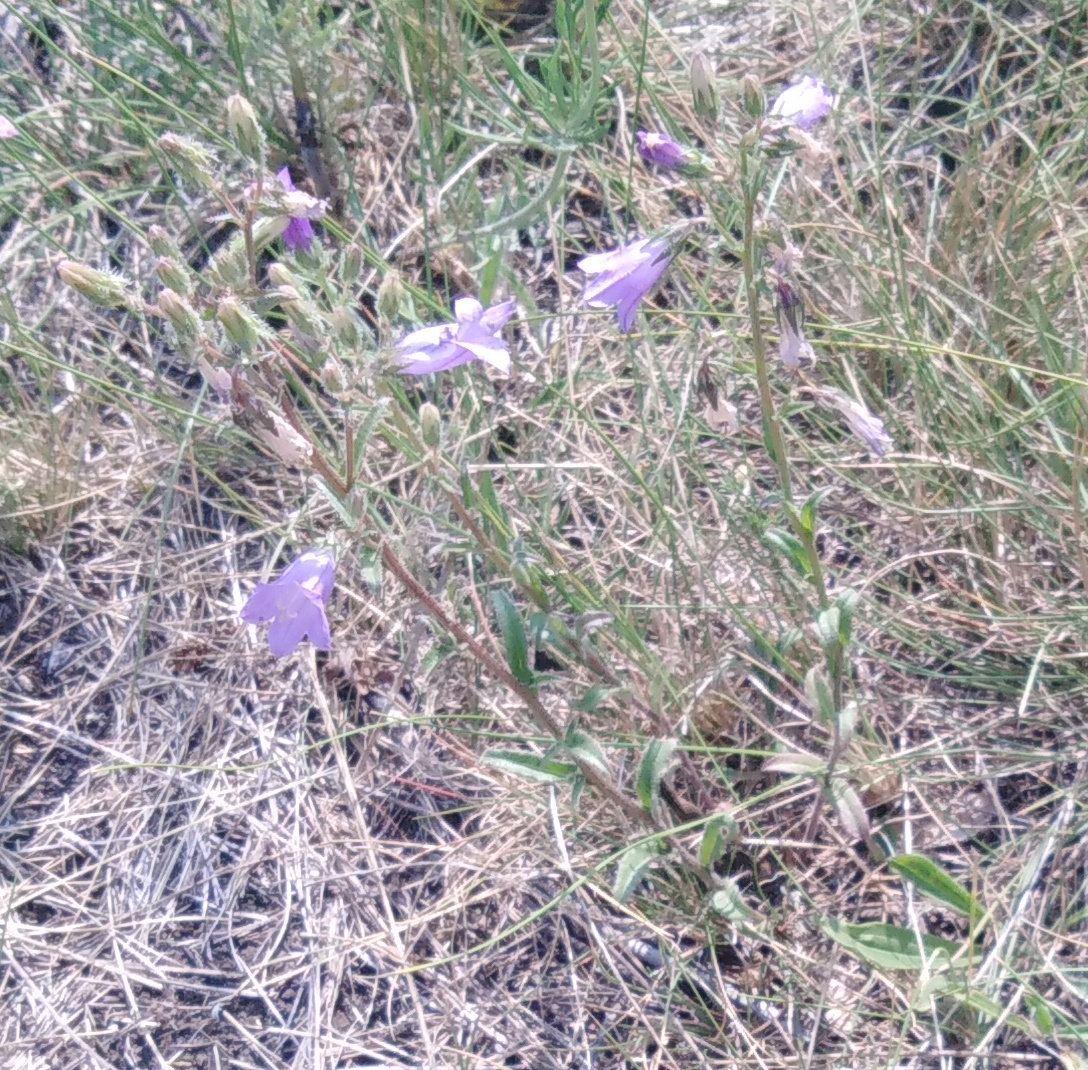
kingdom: Plantae
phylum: Tracheophyta
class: Magnoliopsida
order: Asterales
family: Campanulaceae
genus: Campanula
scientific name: Campanula sibirica
